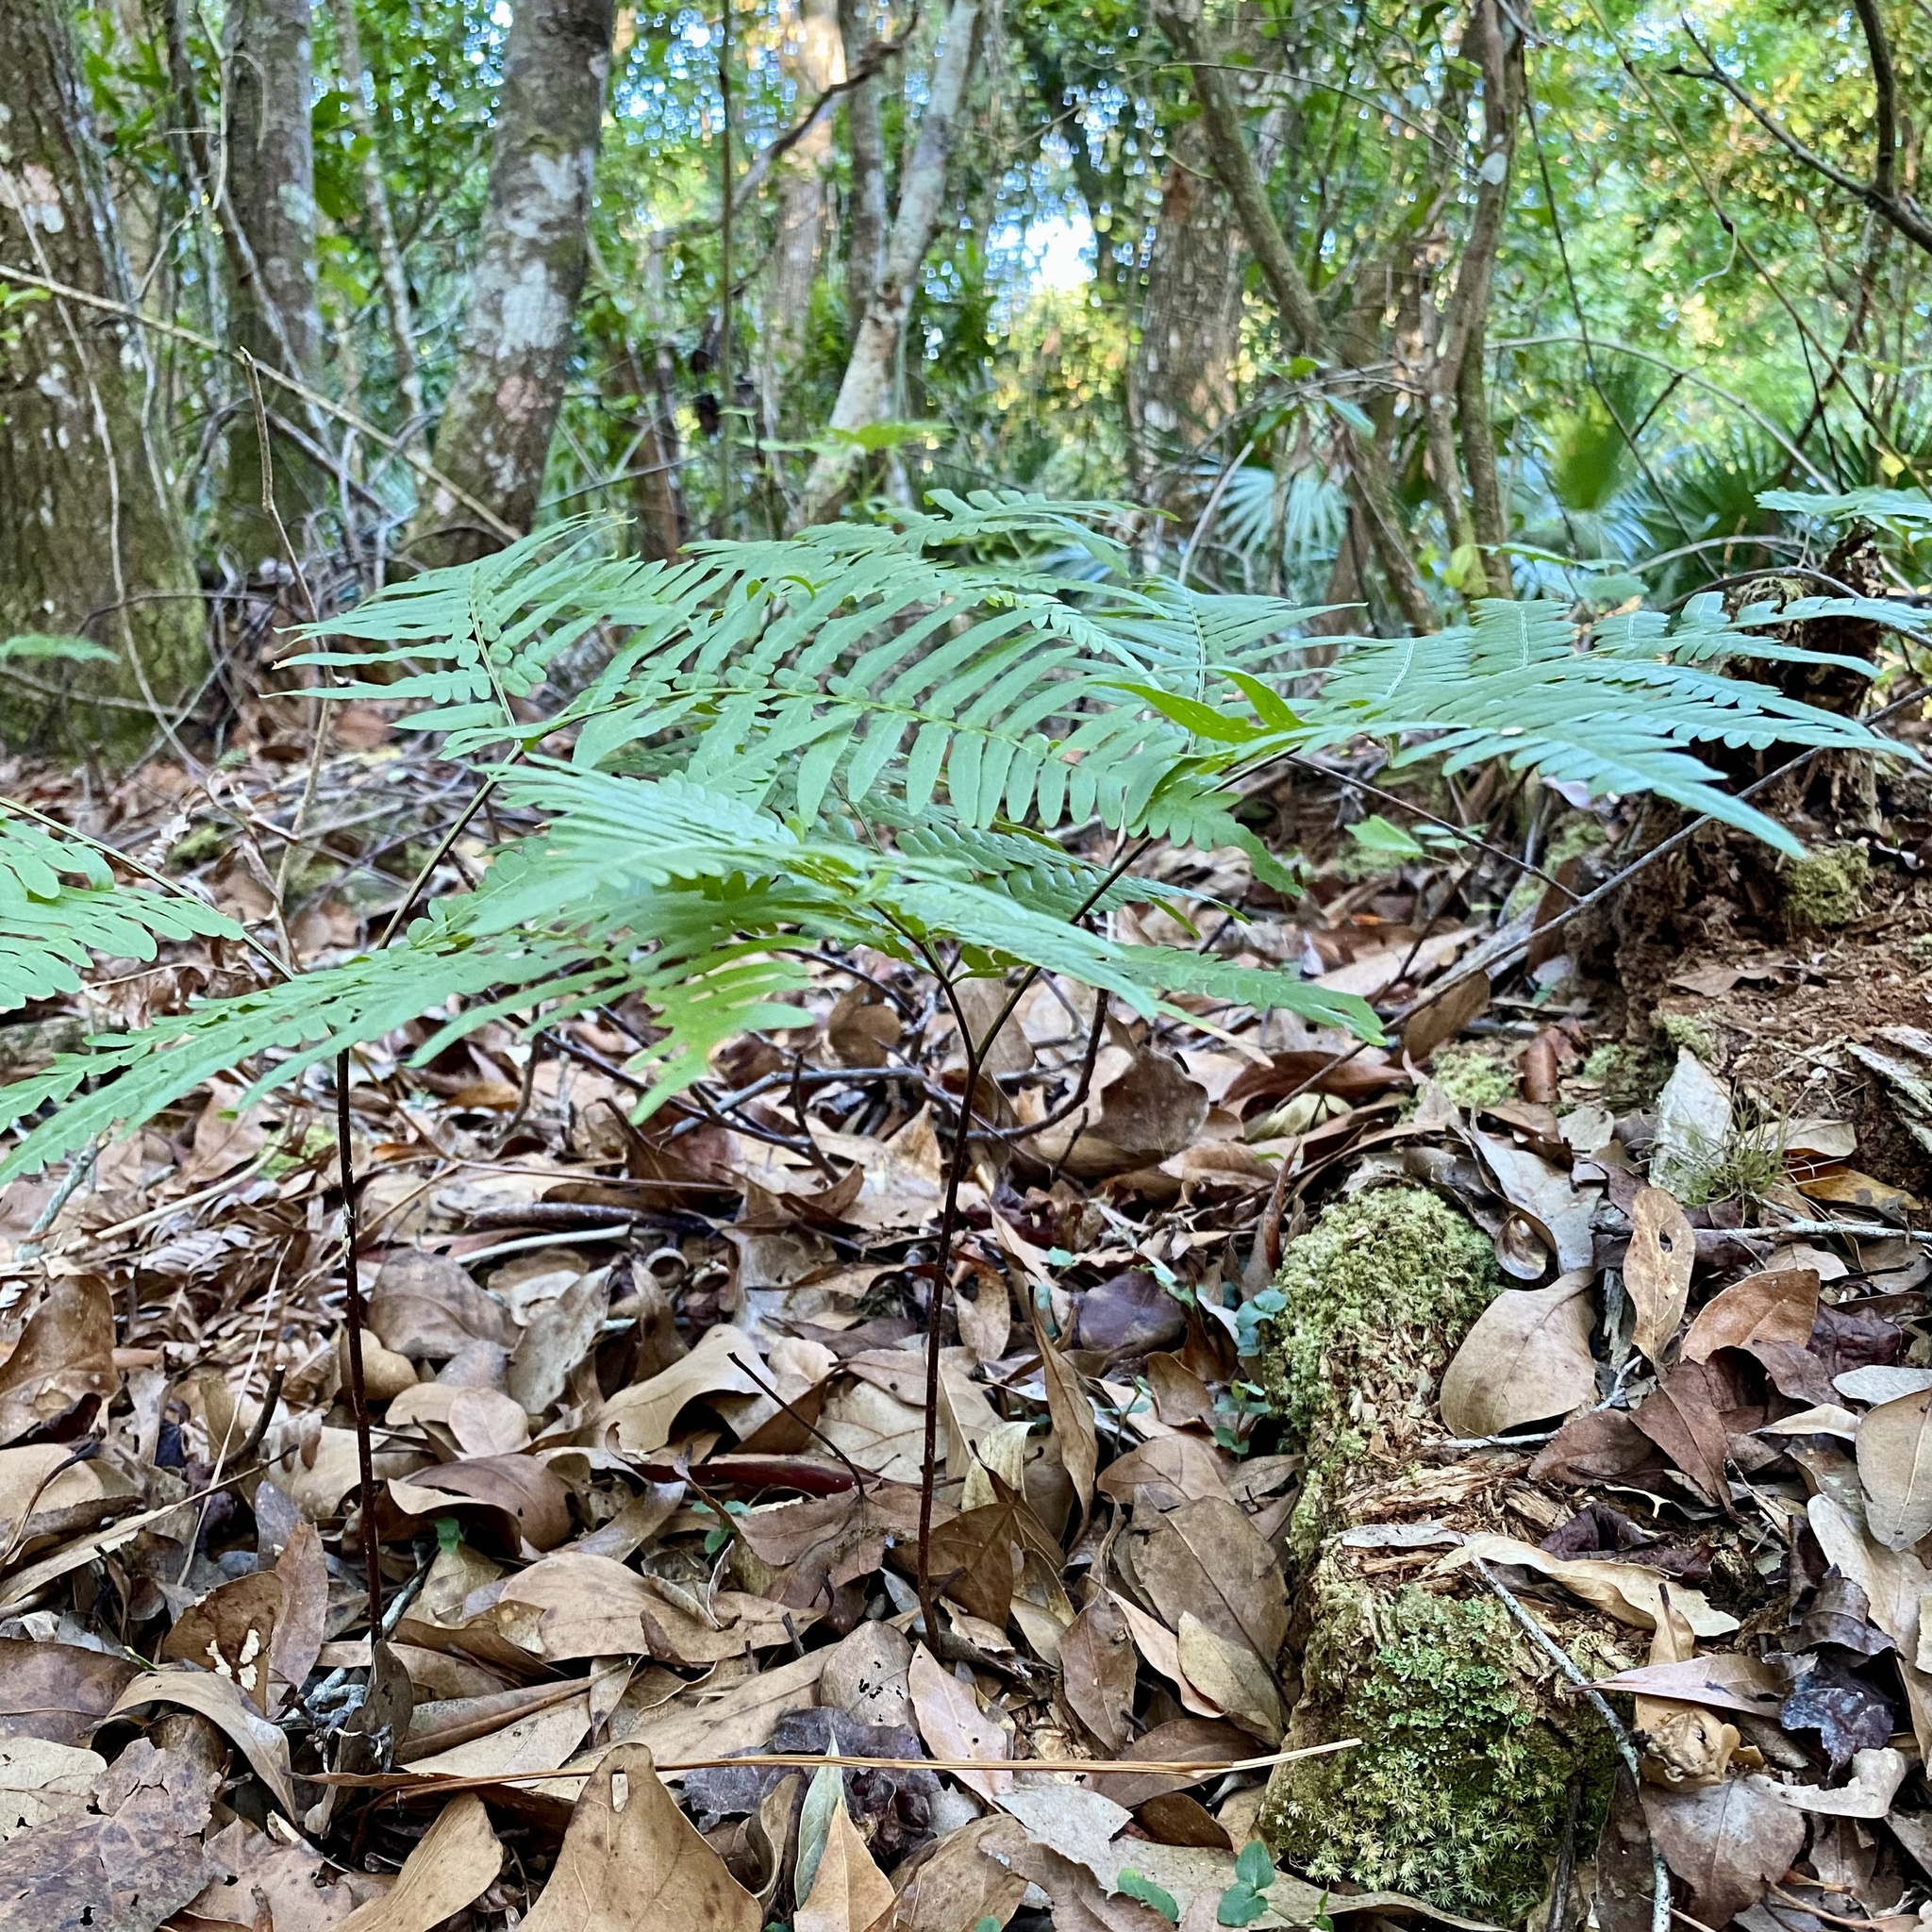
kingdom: Plantae
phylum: Tracheophyta
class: Polypodiopsida
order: Polypodiales
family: Dennstaedtiaceae
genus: Pteridium
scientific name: Pteridium
